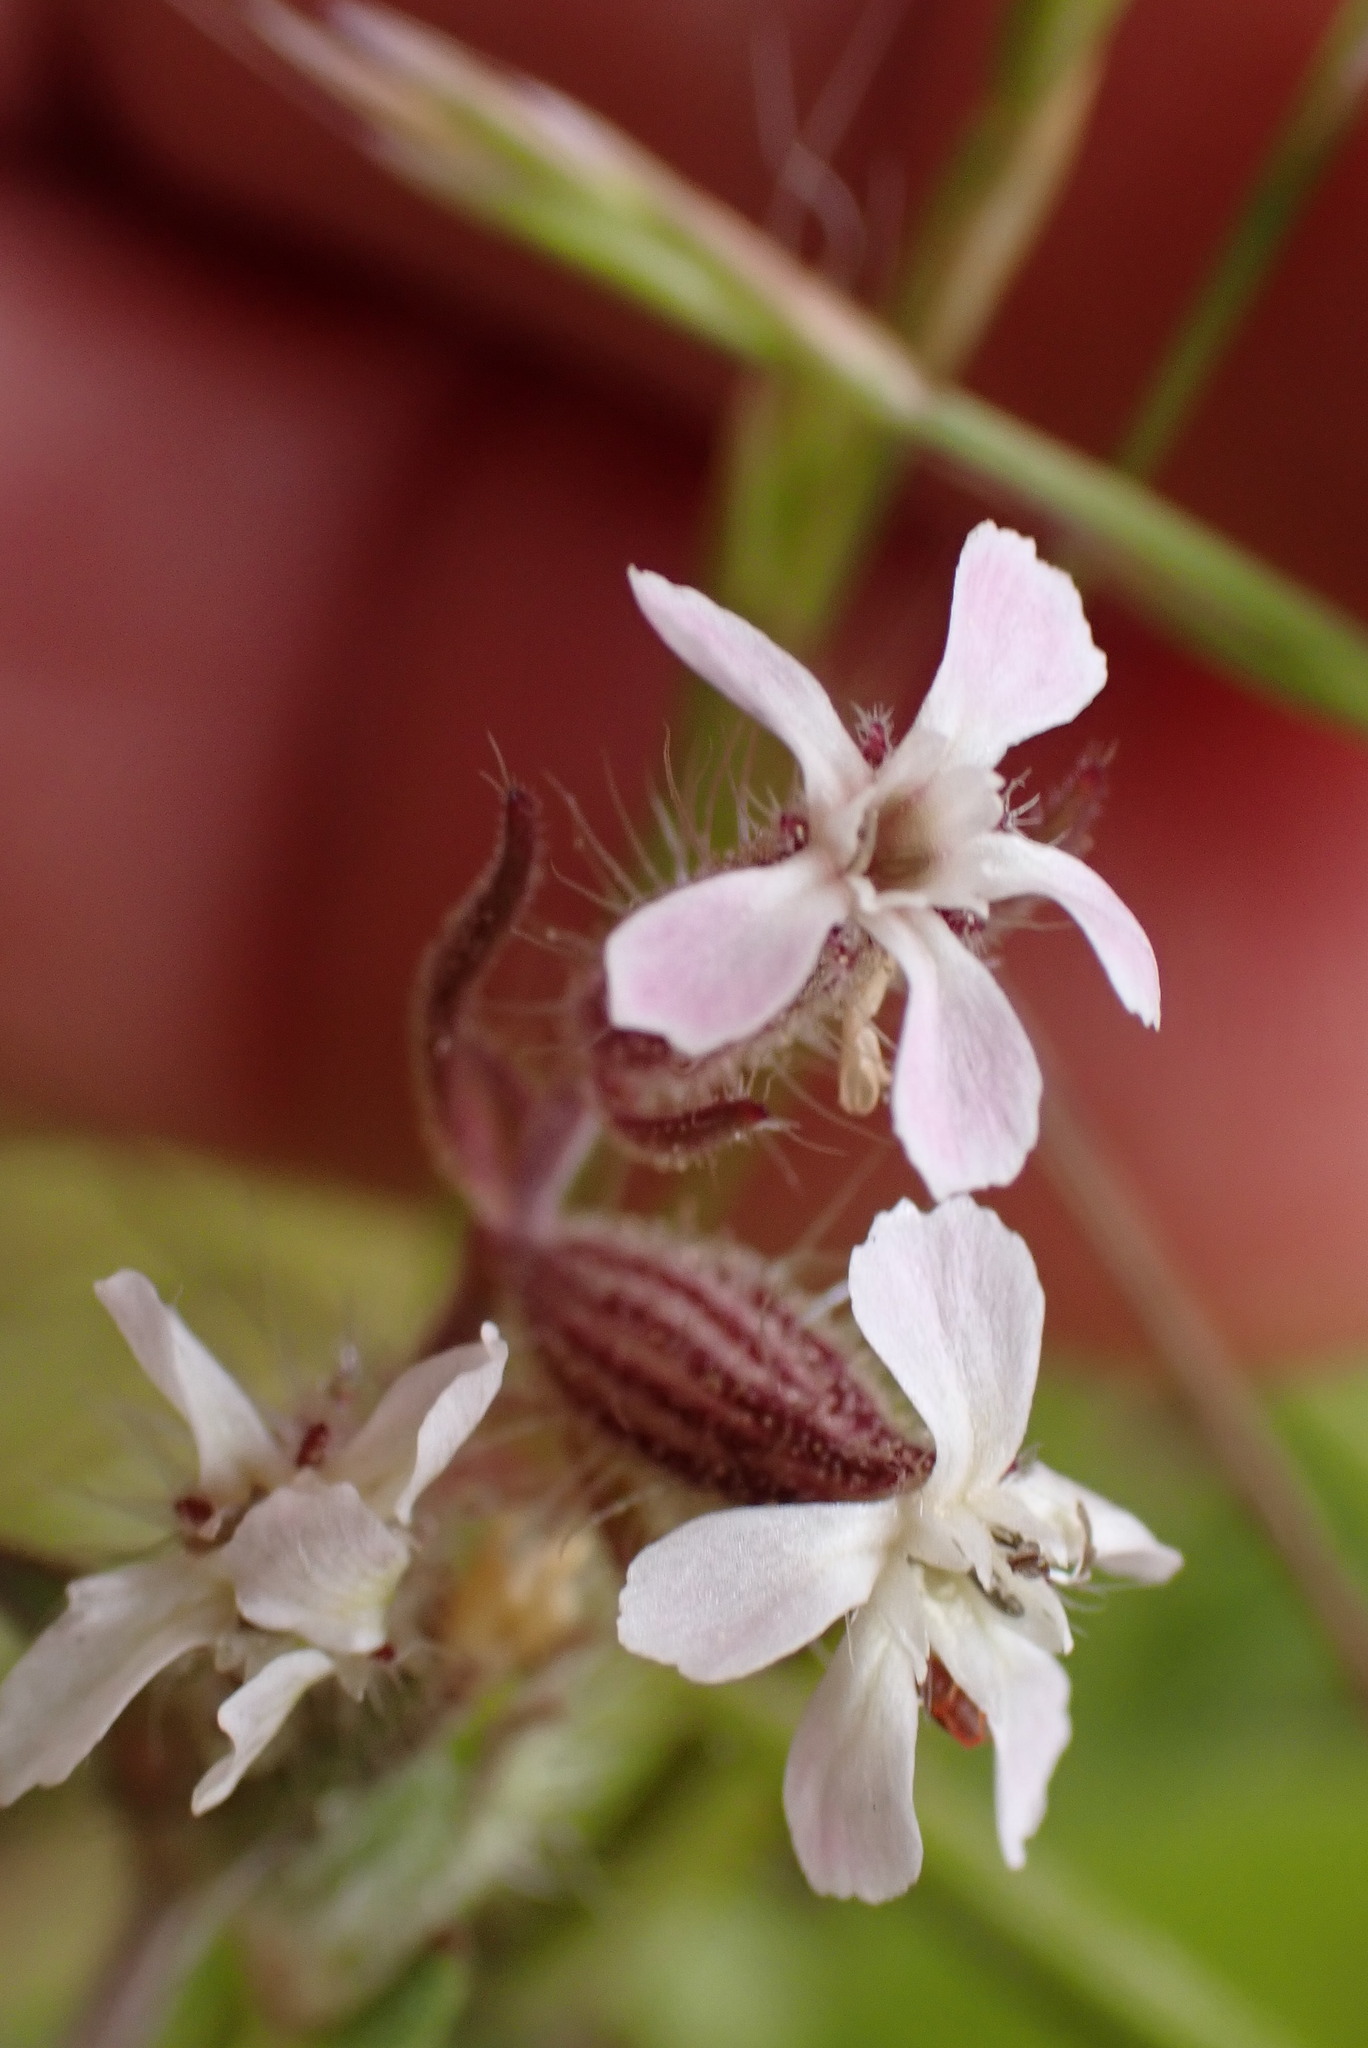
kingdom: Plantae
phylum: Tracheophyta
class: Magnoliopsida
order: Caryophyllales
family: Caryophyllaceae
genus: Silene
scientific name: Silene gallica
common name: Small-flowered catchfly
